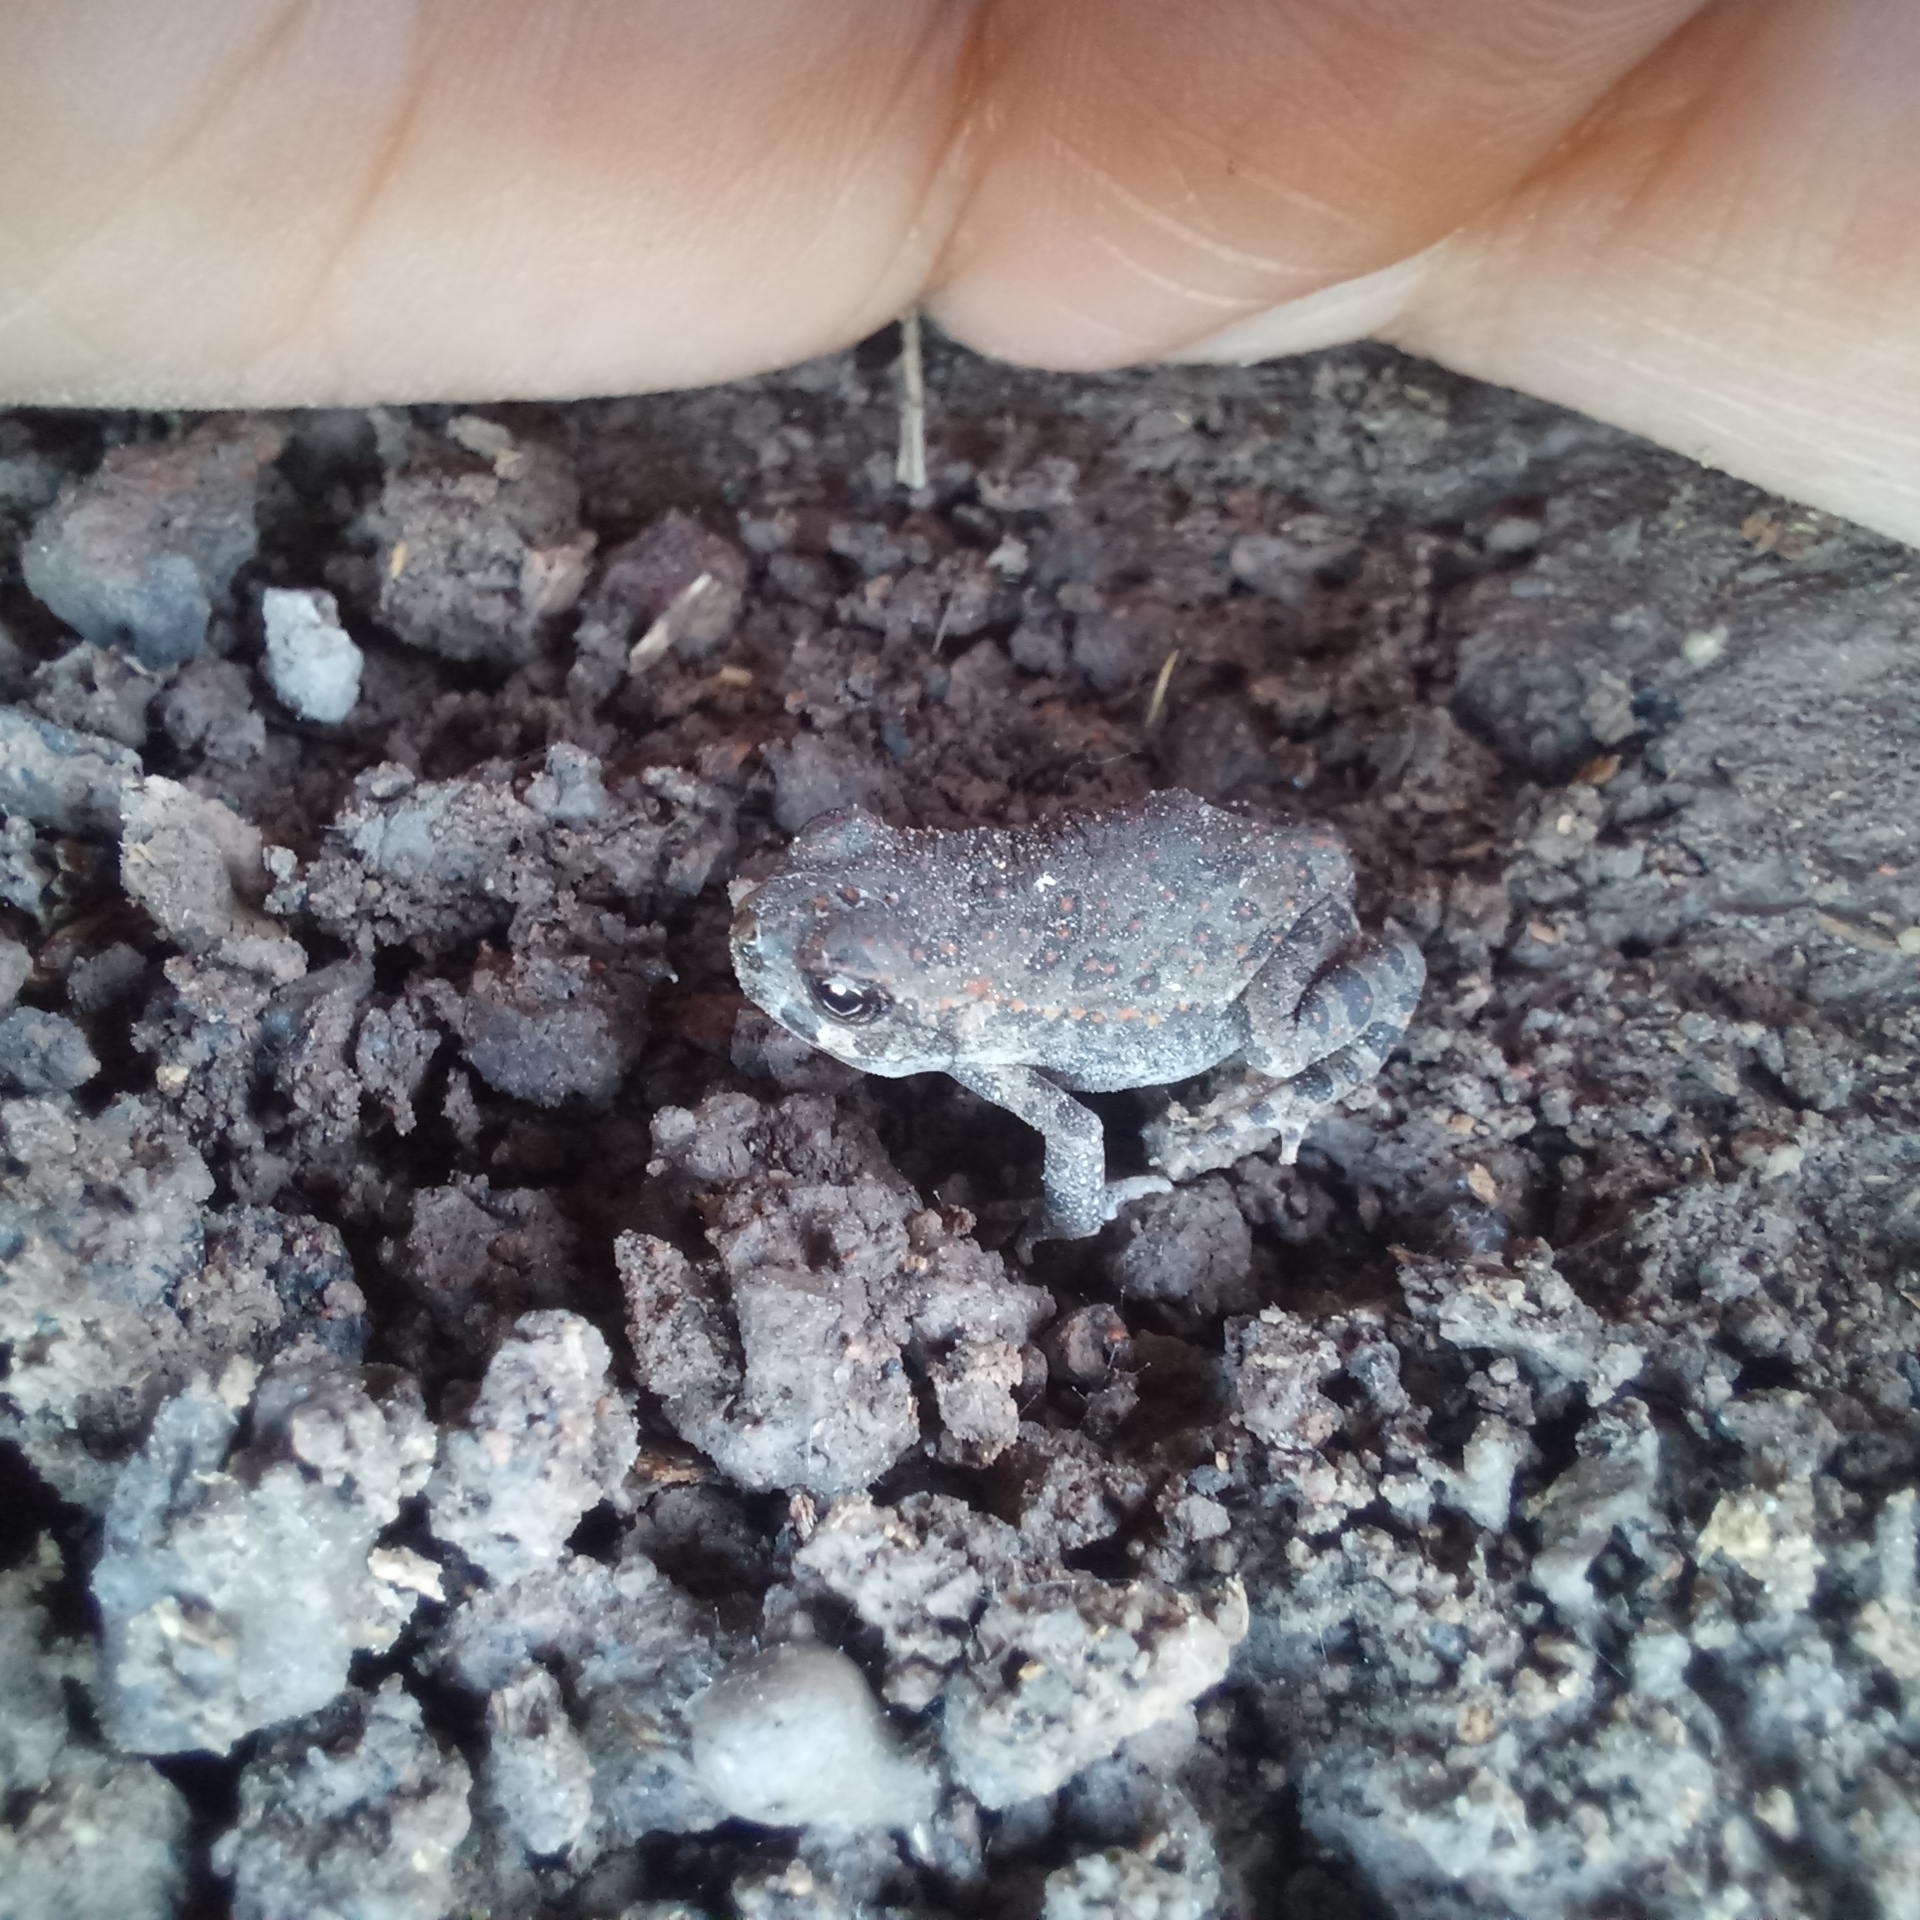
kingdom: Animalia
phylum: Chordata
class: Amphibia
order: Anura
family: Bufonidae
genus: Rhinella
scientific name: Rhinella arenarum
